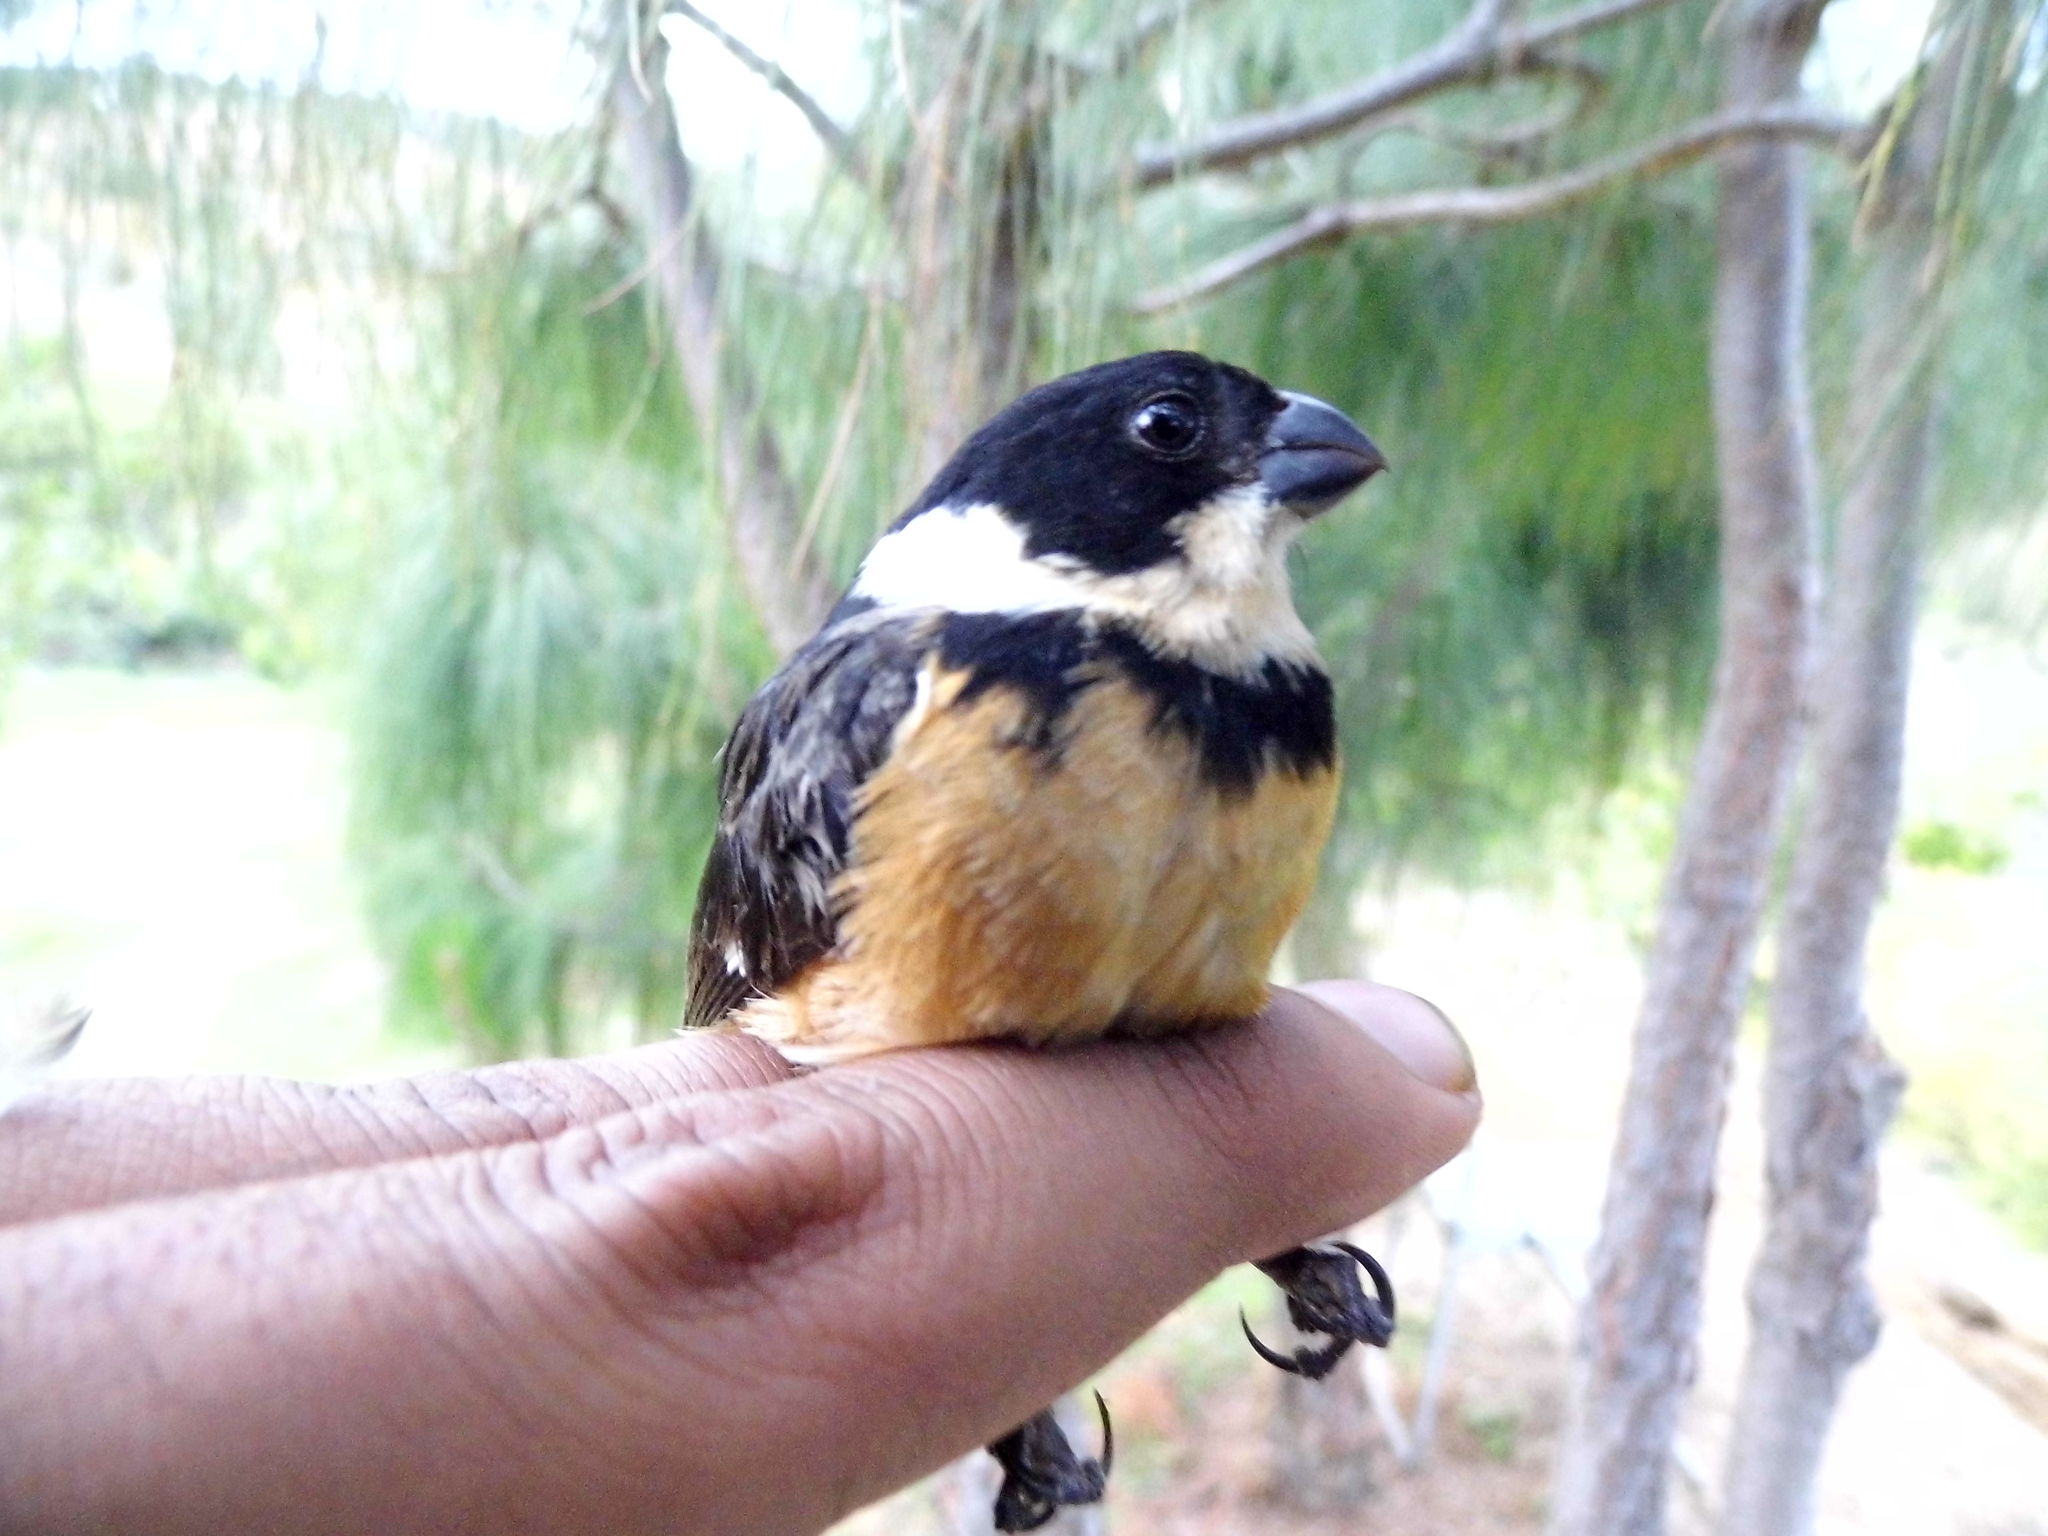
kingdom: Animalia
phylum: Chordata
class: Aves
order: Passeriformes
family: Thraupidae
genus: Sporophila
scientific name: Sporophila torqueola
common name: White-collared seedeater
